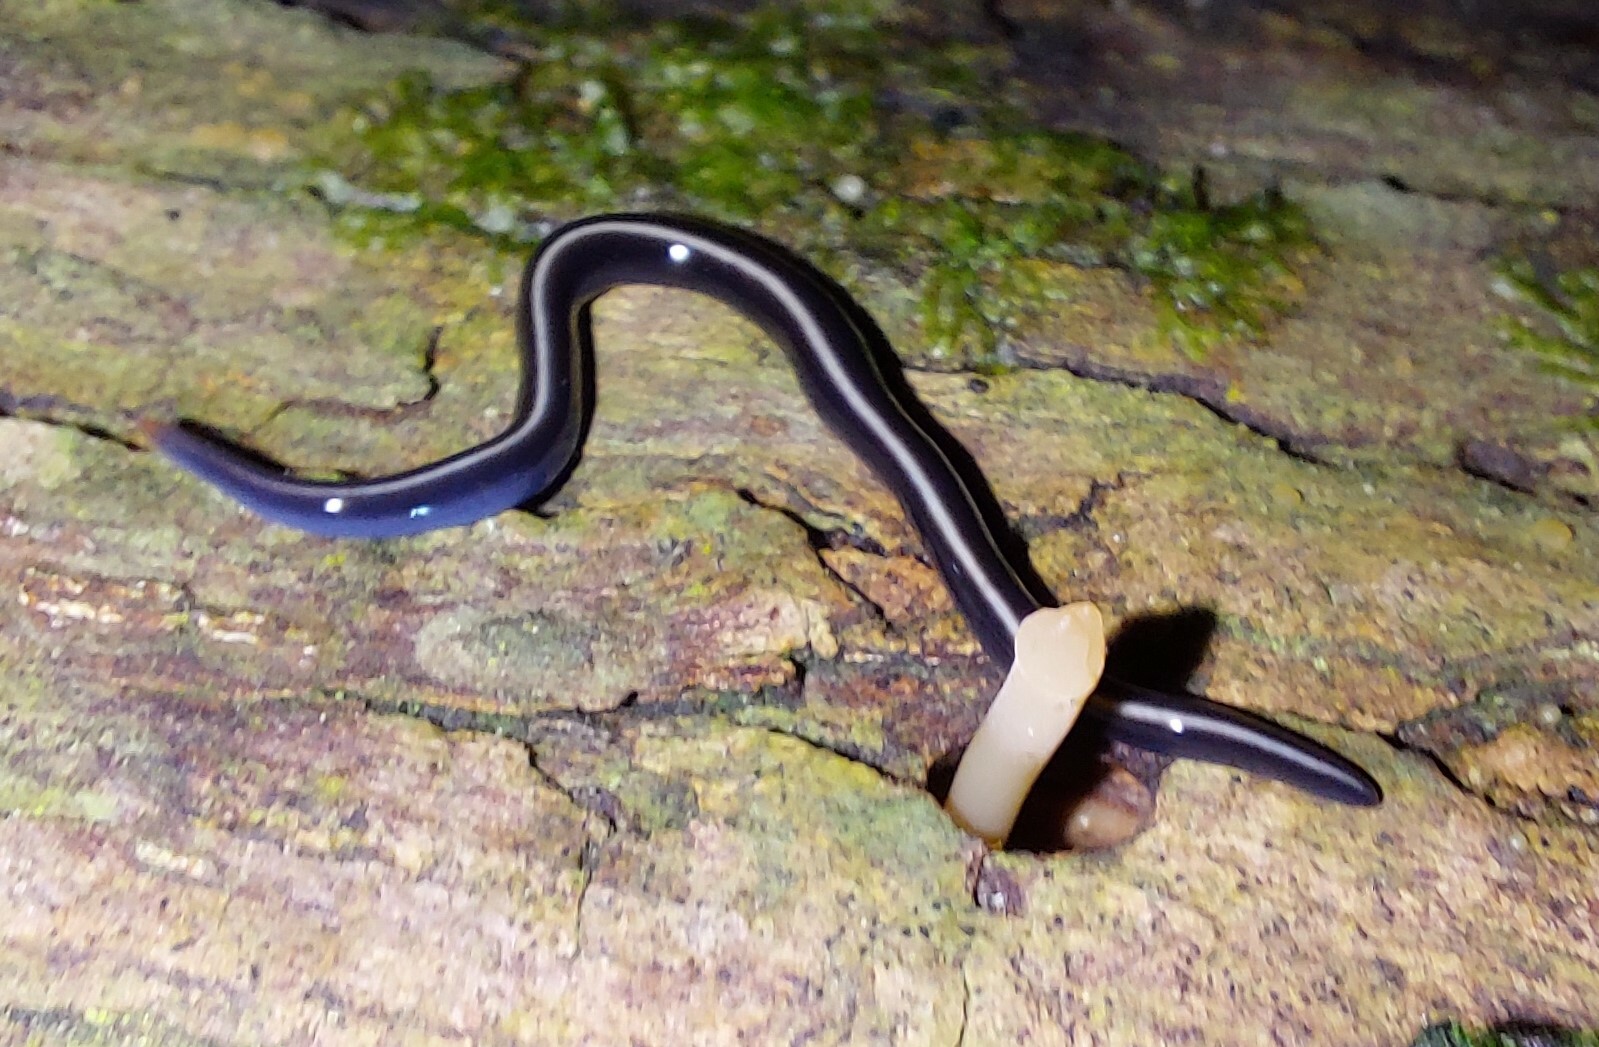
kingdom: Animalia
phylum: Platyhelminthes
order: Tricladida
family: Geoplanidae
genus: Caenoplana
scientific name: Caenoplana coerulea
